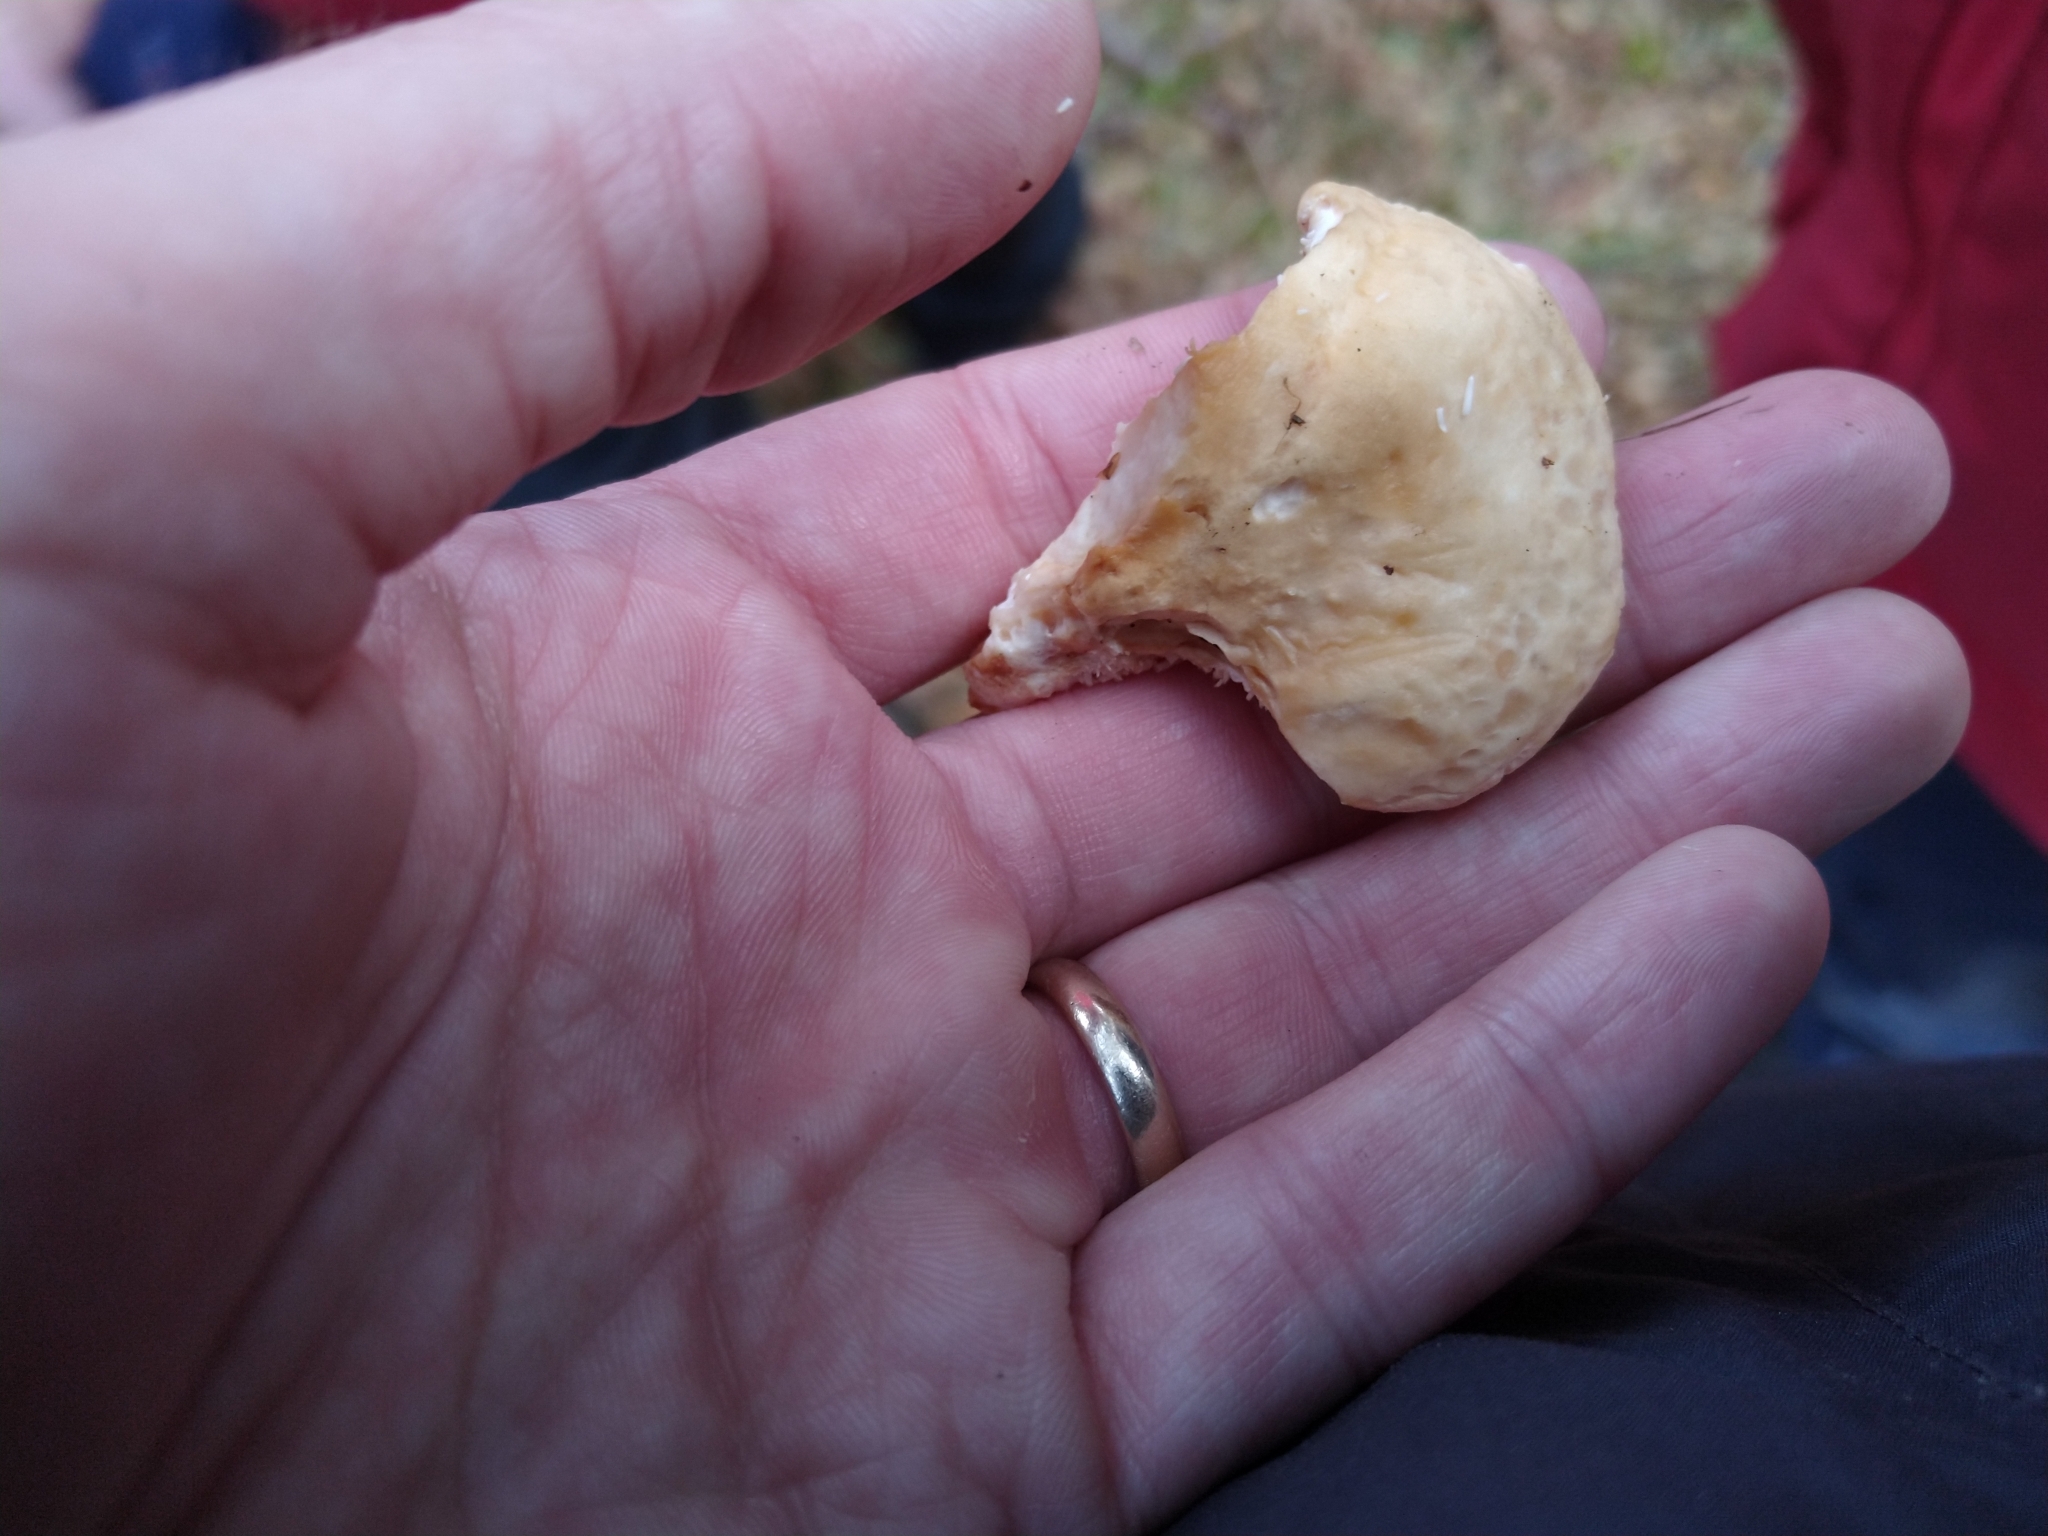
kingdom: Fungi
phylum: Basidiomycota
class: Agaricomycetes
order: Cantharellales
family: Hydnaceae
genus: Hydnum
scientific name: Hydnum repandum
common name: Wood hedgehog
